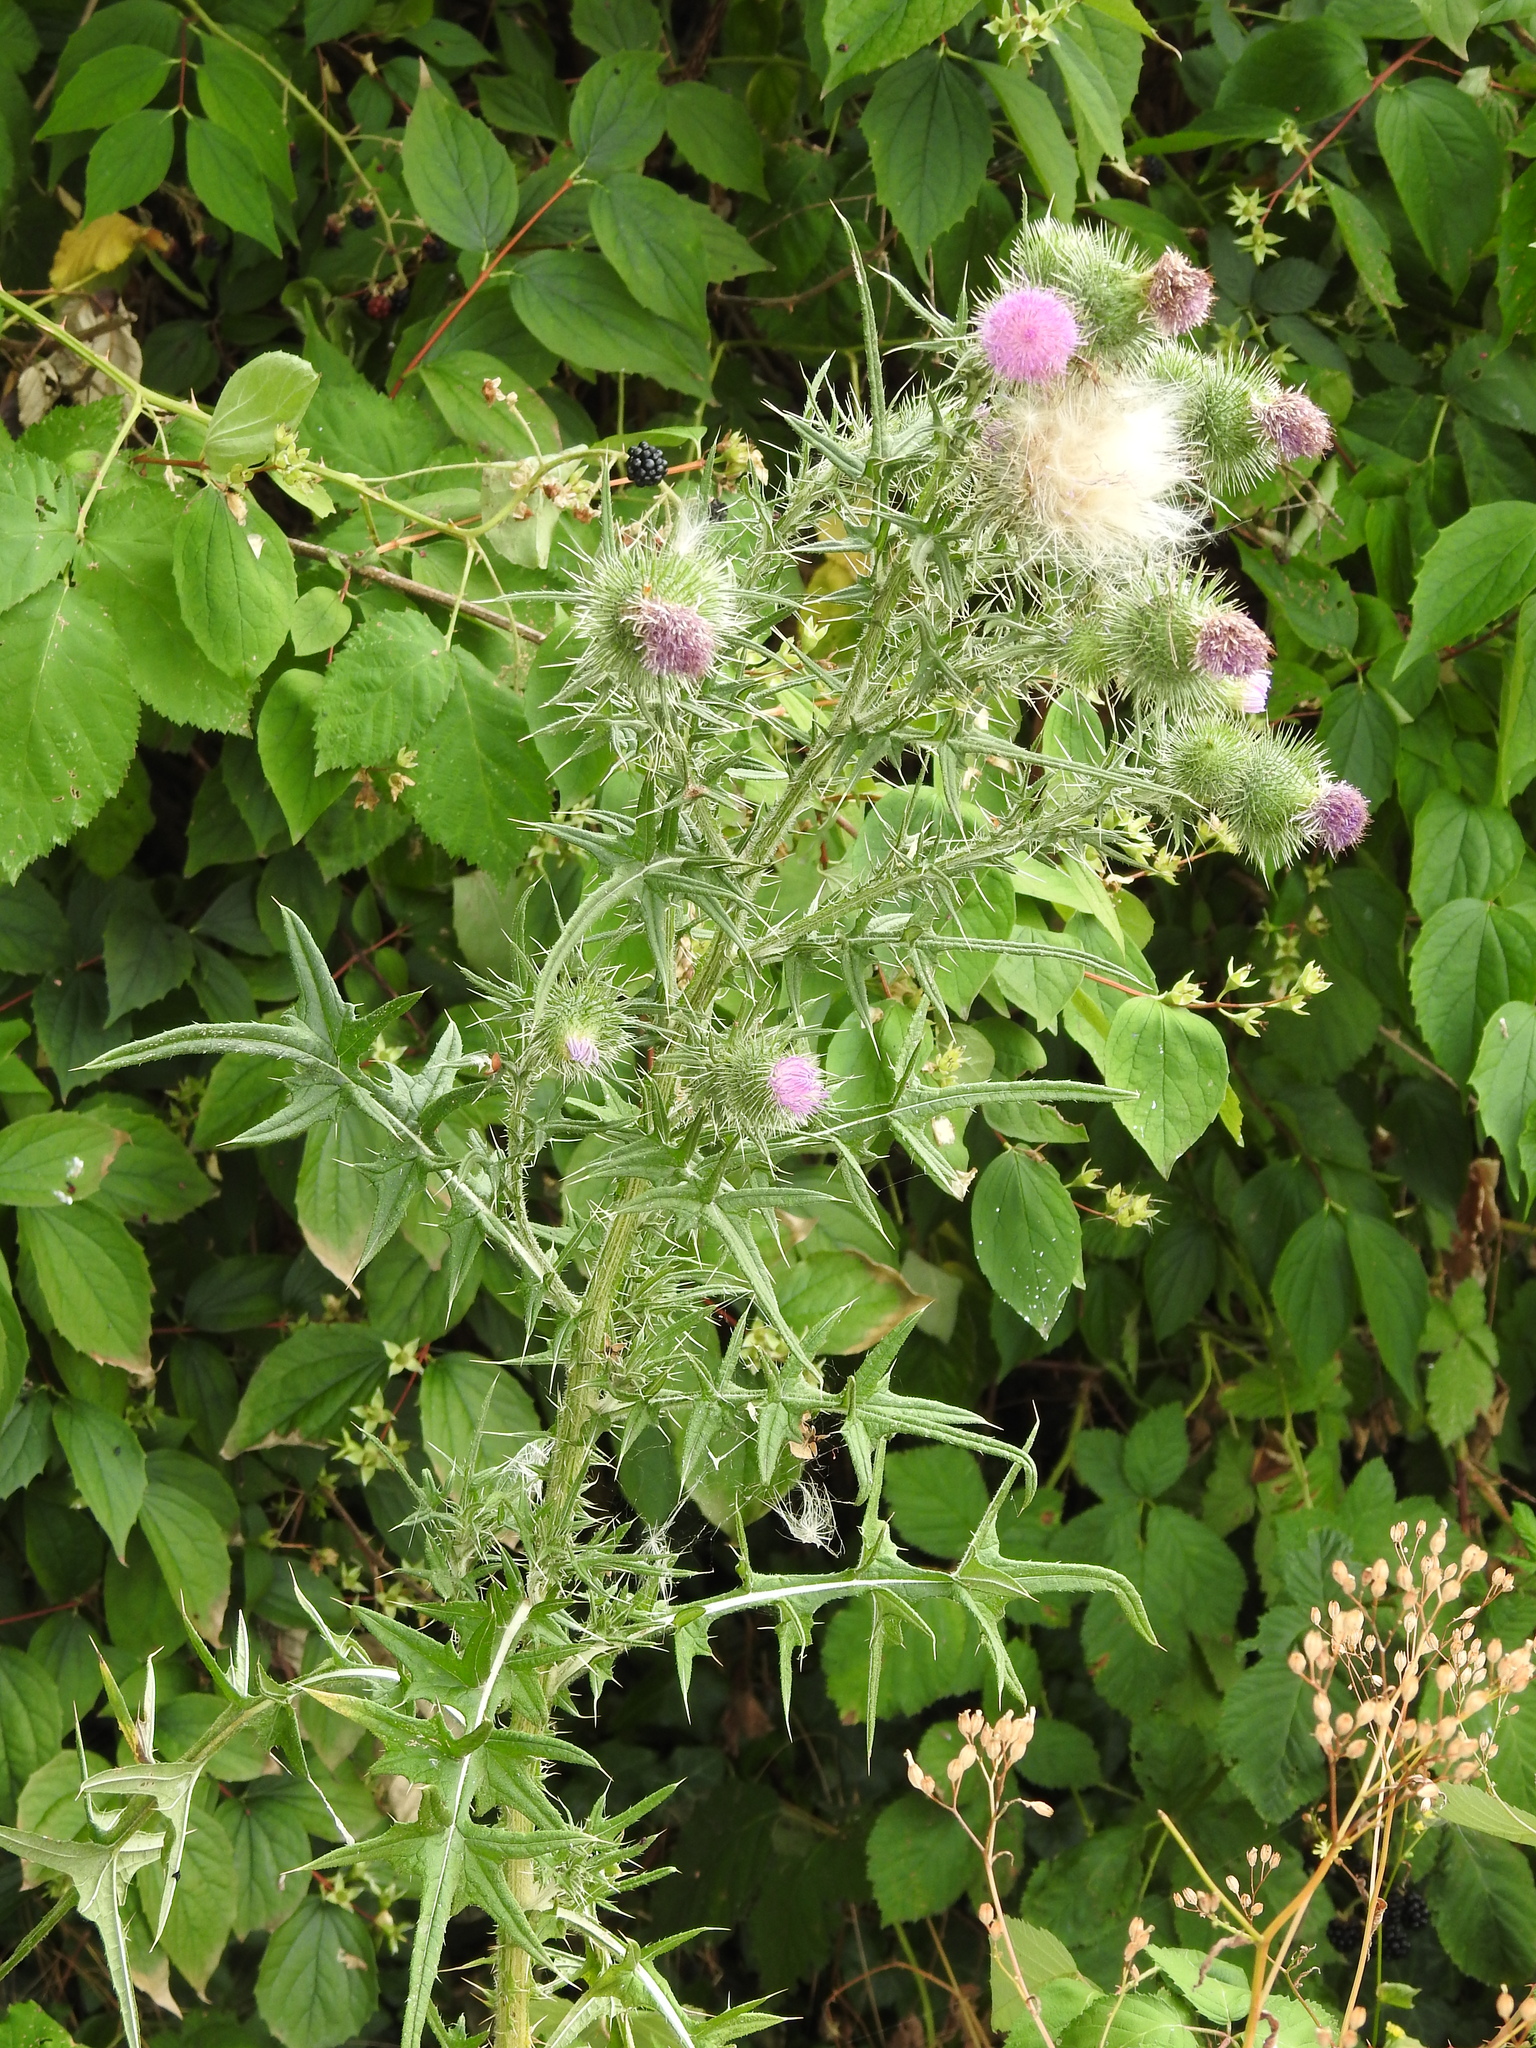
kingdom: Plantae
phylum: Tracheophyta
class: Magnoliopsida
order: Asterales
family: Asteraceae
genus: Cirsium
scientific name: Cirsium vulgare
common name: Bull thistle
